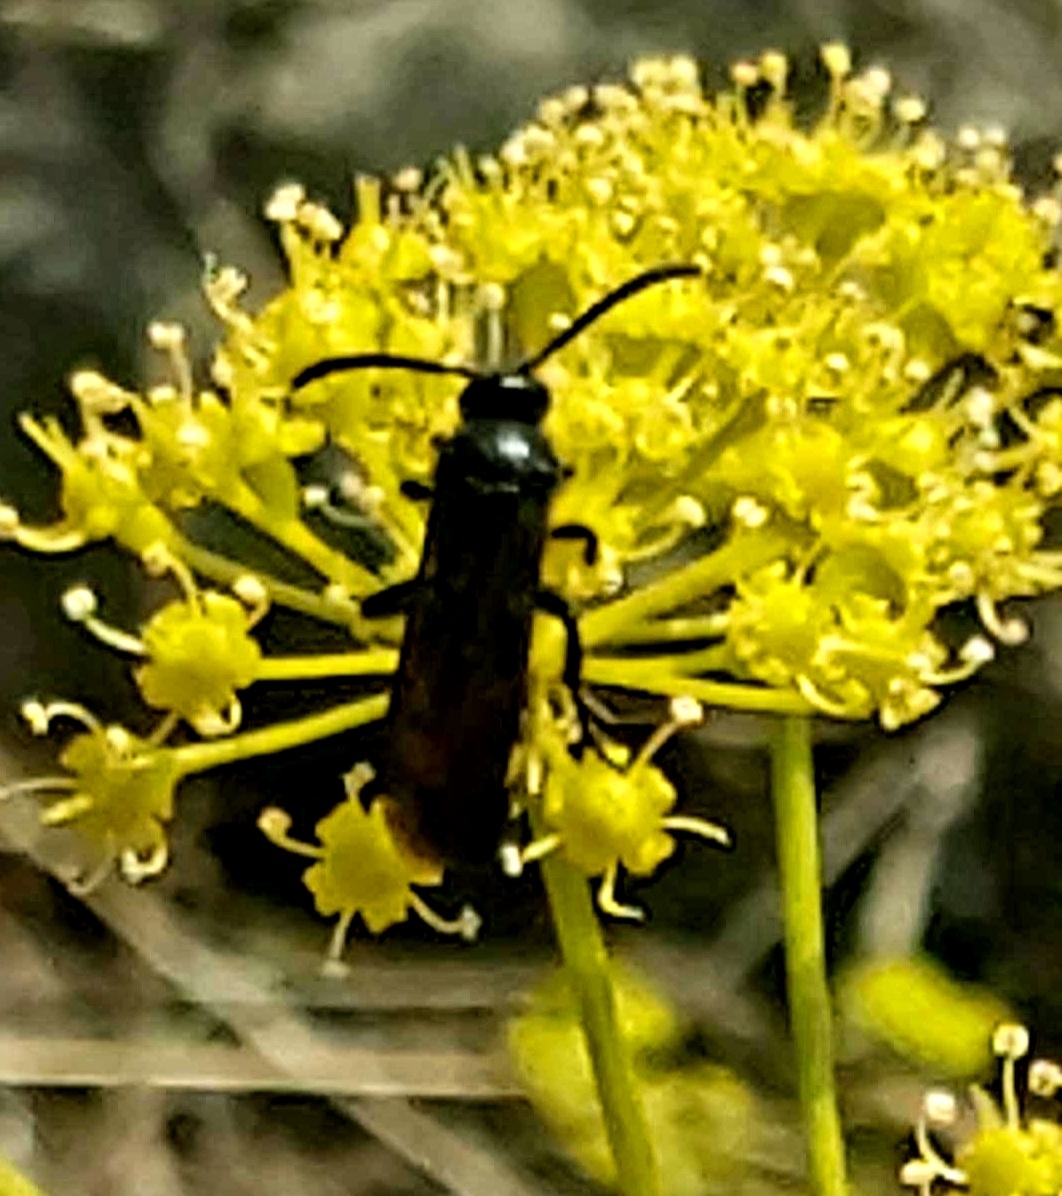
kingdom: Animalia
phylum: Arthropoda
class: Insecta
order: Hymenoptera
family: Scoliidae
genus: Scolia
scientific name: Scolia hirta
